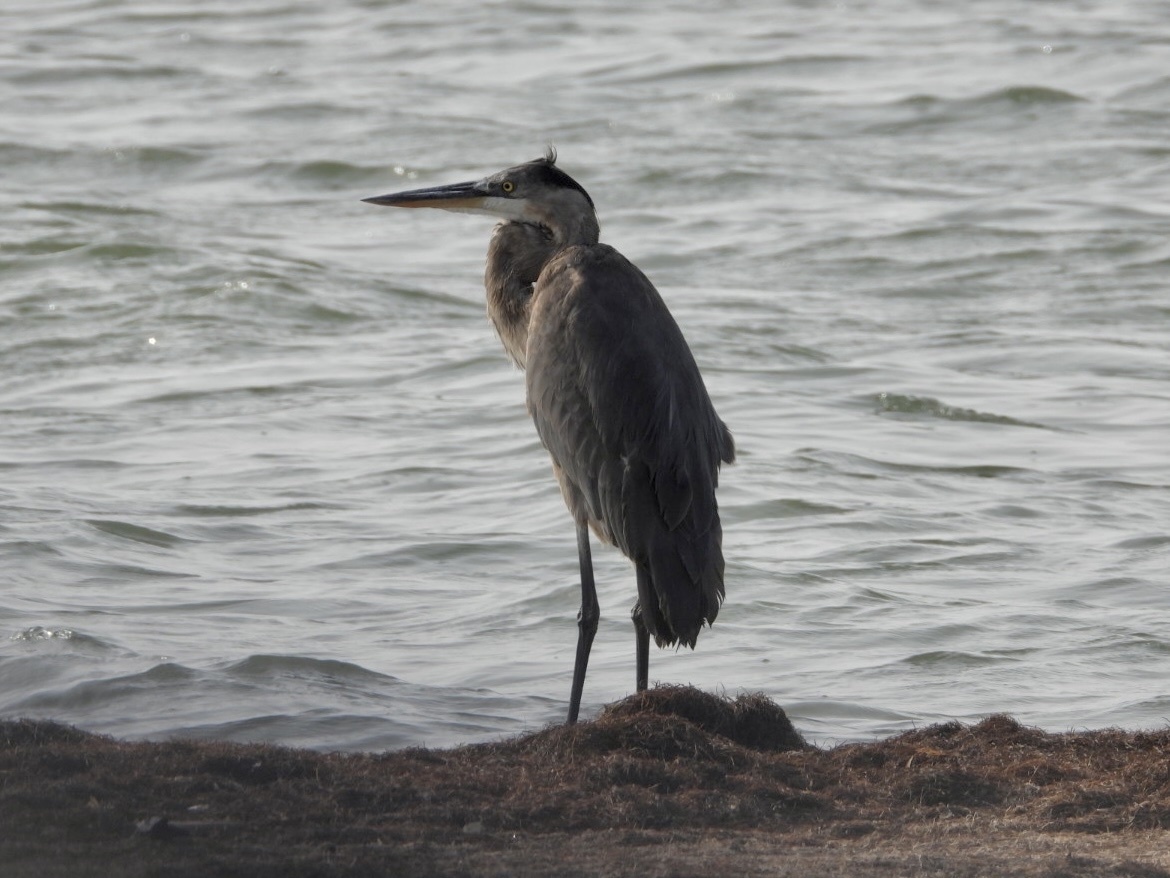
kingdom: Animalia
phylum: Chordata
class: Aves
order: Pelecaniformes
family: Ardeidae
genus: Ardea
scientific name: Ardea herodias
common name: Great blue heron
